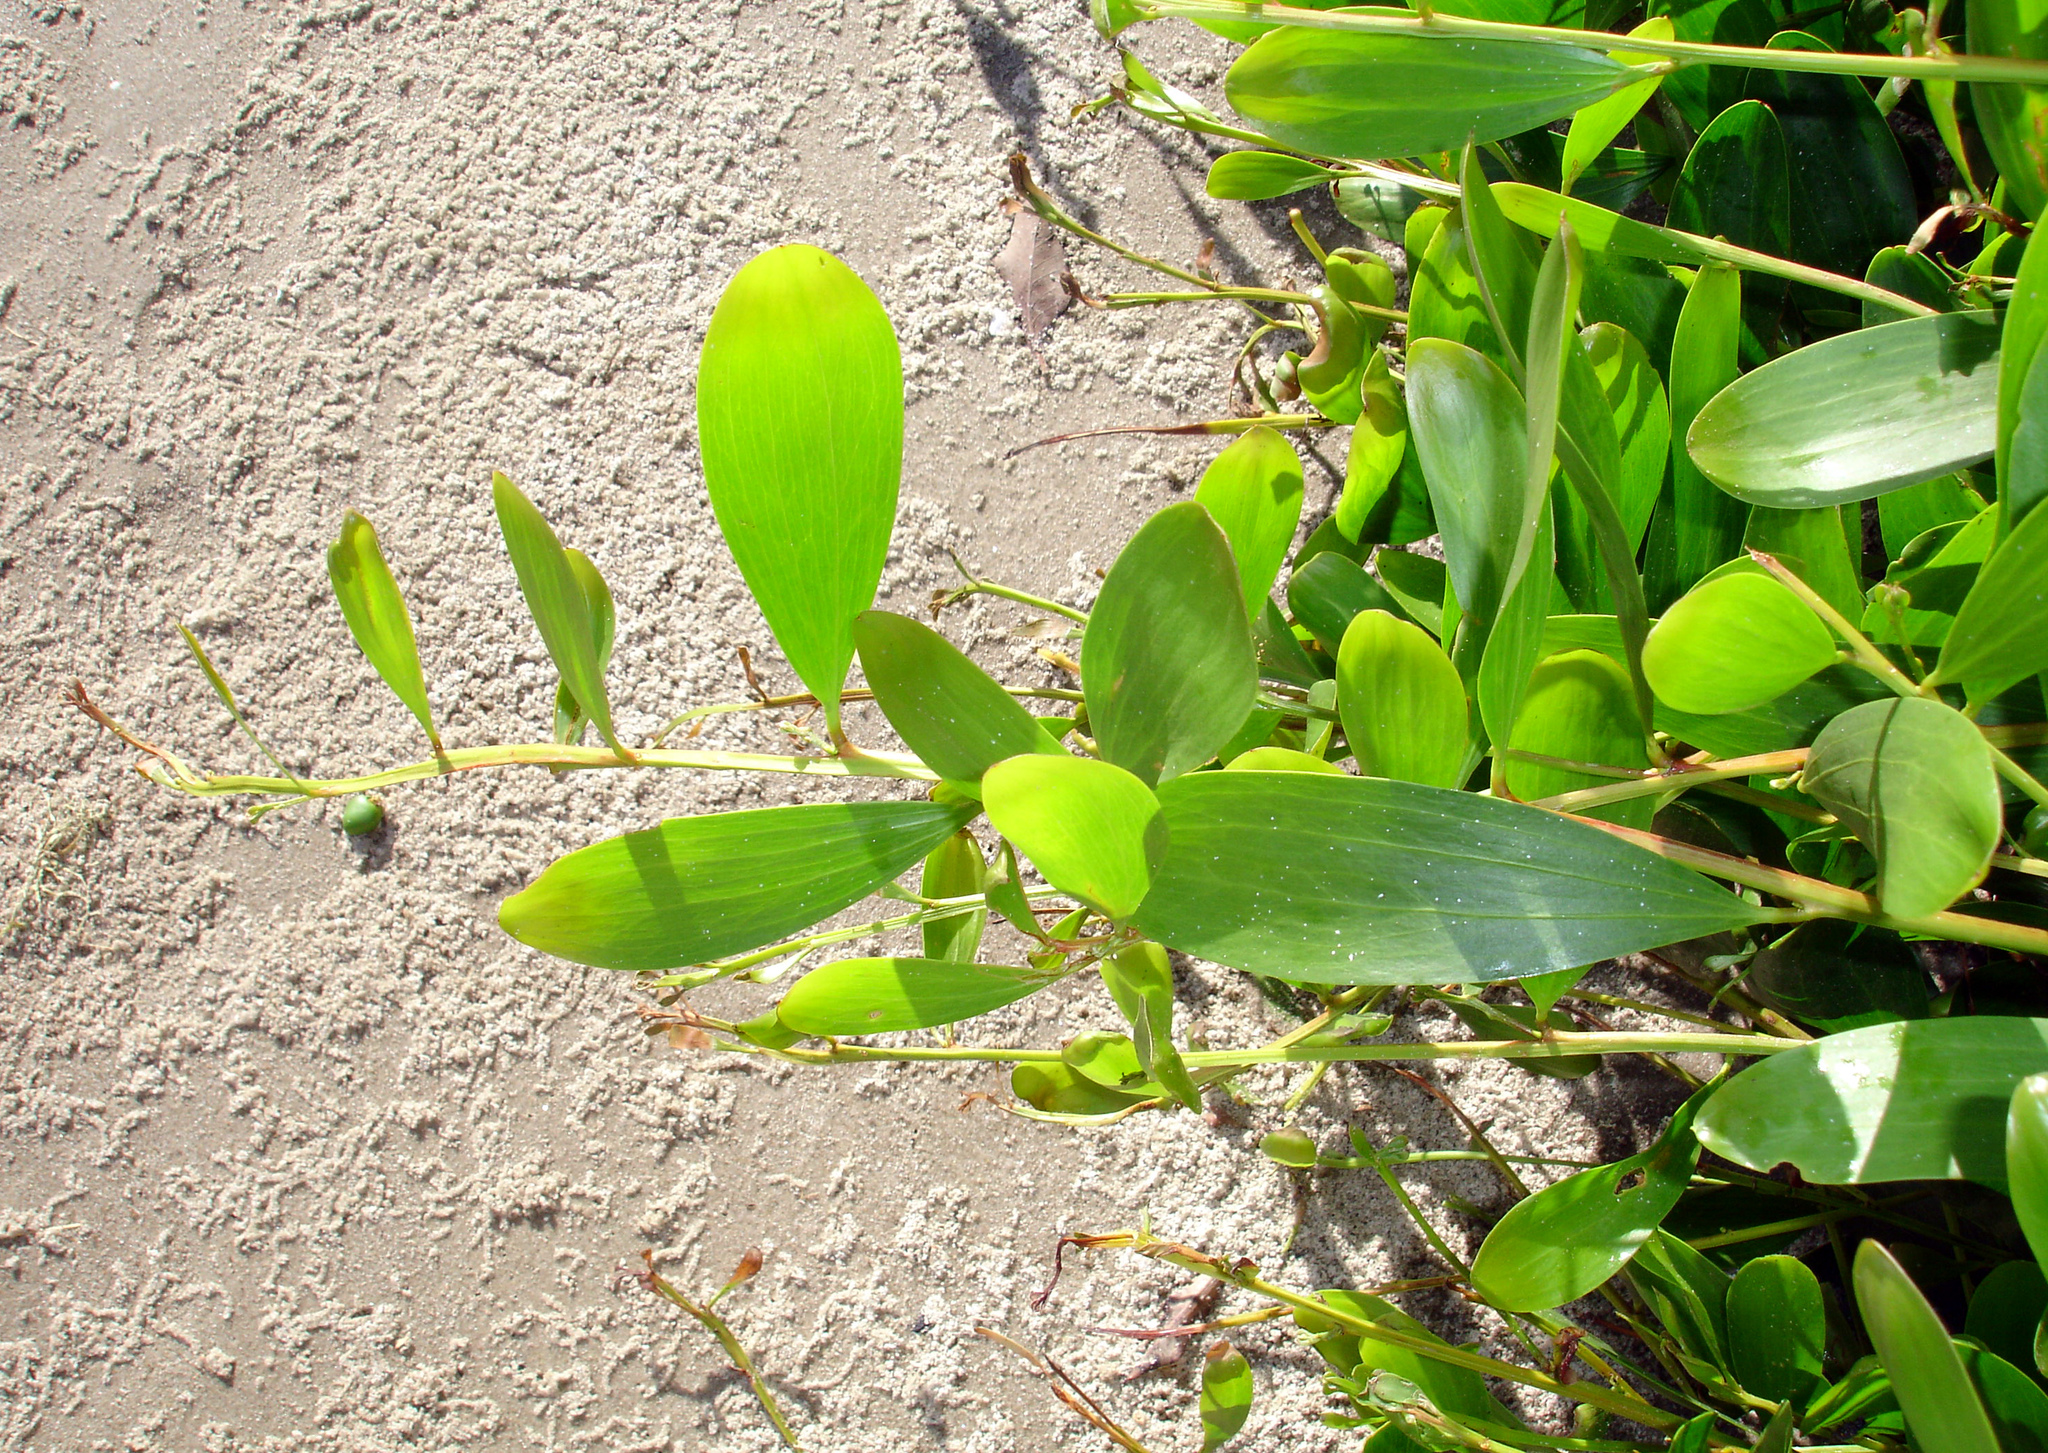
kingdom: Plantae
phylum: Tracheophyta
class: Magnoliopsida
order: Fabales
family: Fabaceae
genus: Acacia
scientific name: Acacia longifolia
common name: Sydney golden wattle
